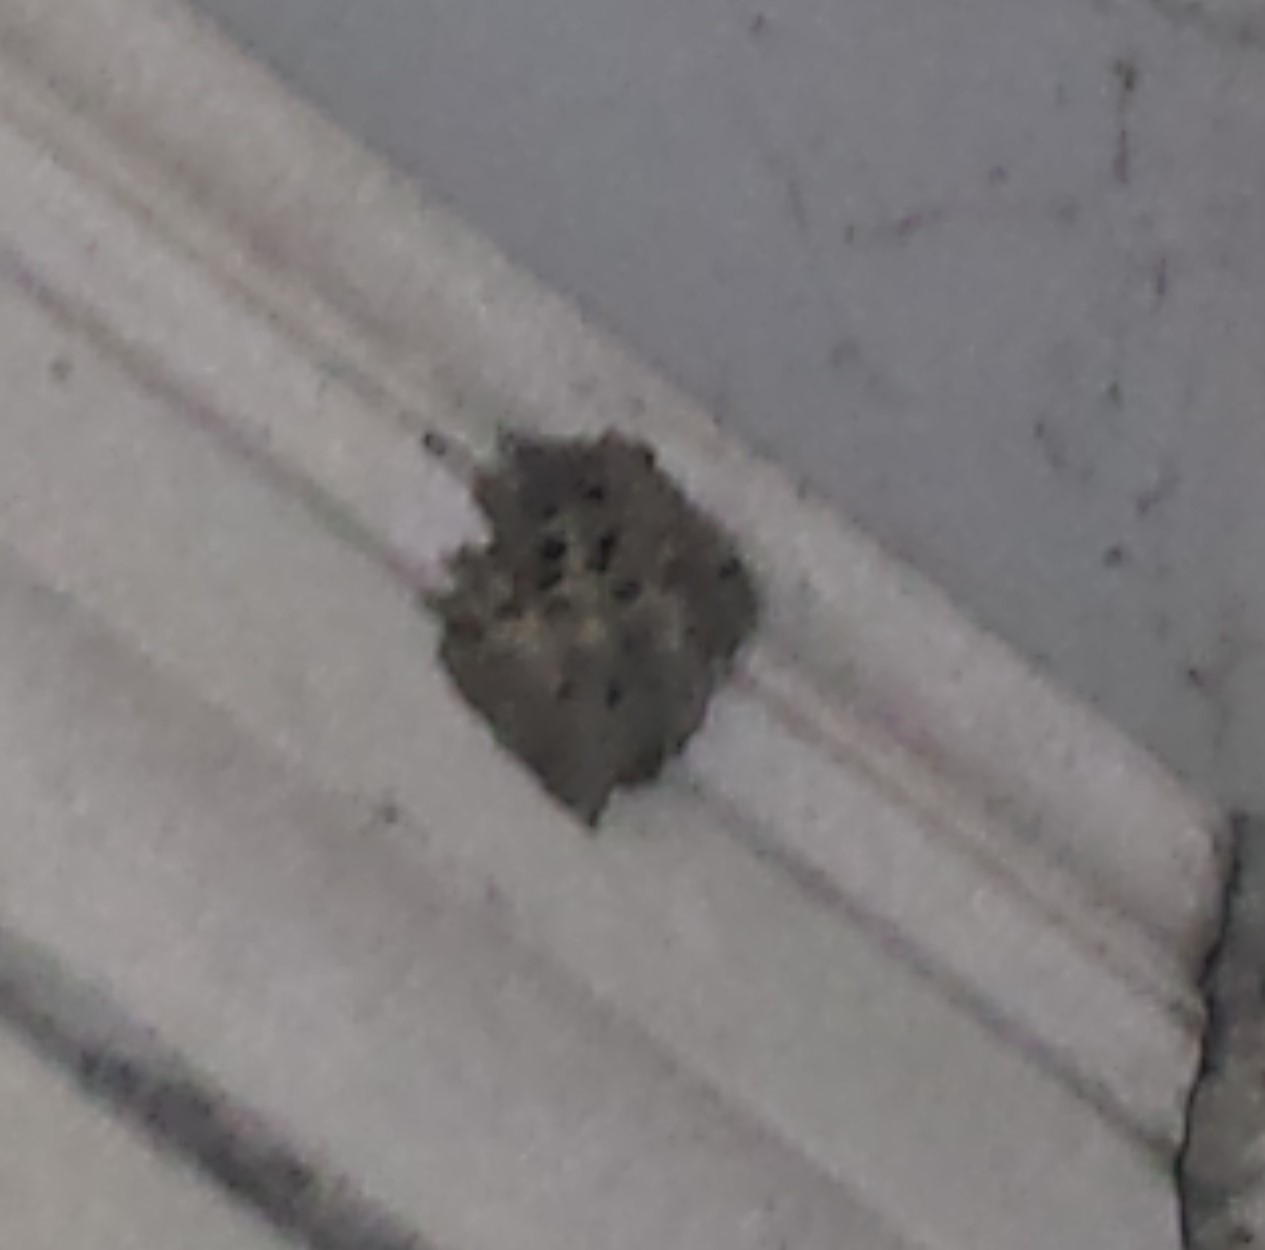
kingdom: Animalia
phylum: Arthropoda
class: Insecta
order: Hymenoptera
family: Sphecidae
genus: Sceliphron
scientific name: Sceliphron caementarium
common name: Mud dauber
